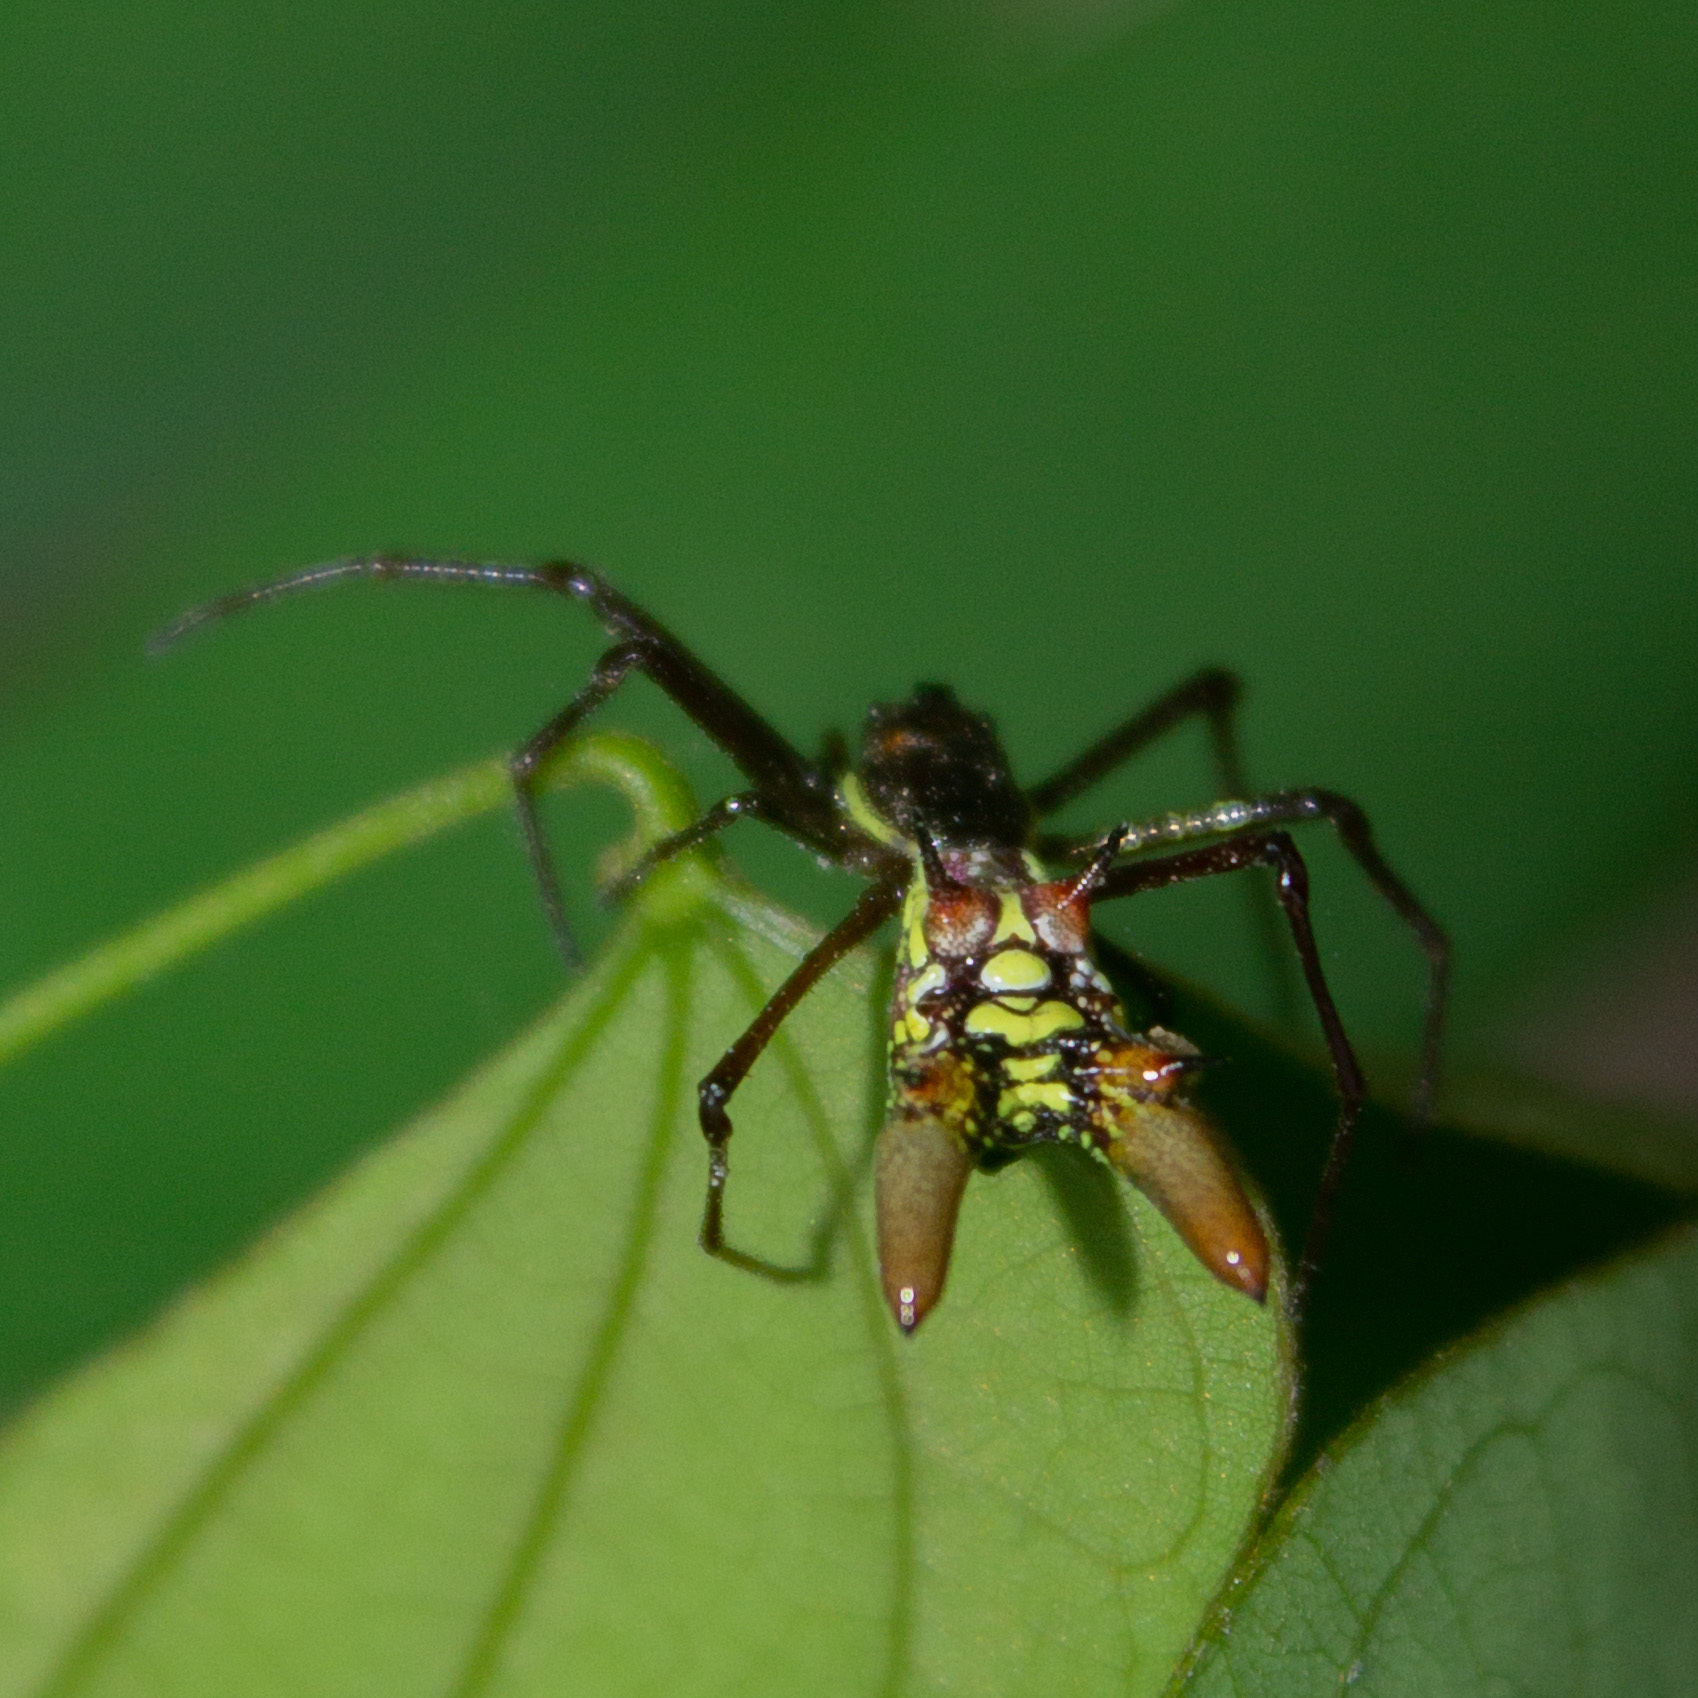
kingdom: Animalia
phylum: Arthropoda
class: Arachnida
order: Araneae
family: Araneidae
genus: Micrathena
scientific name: Micrathena sexspinosa
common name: Orb weavers
